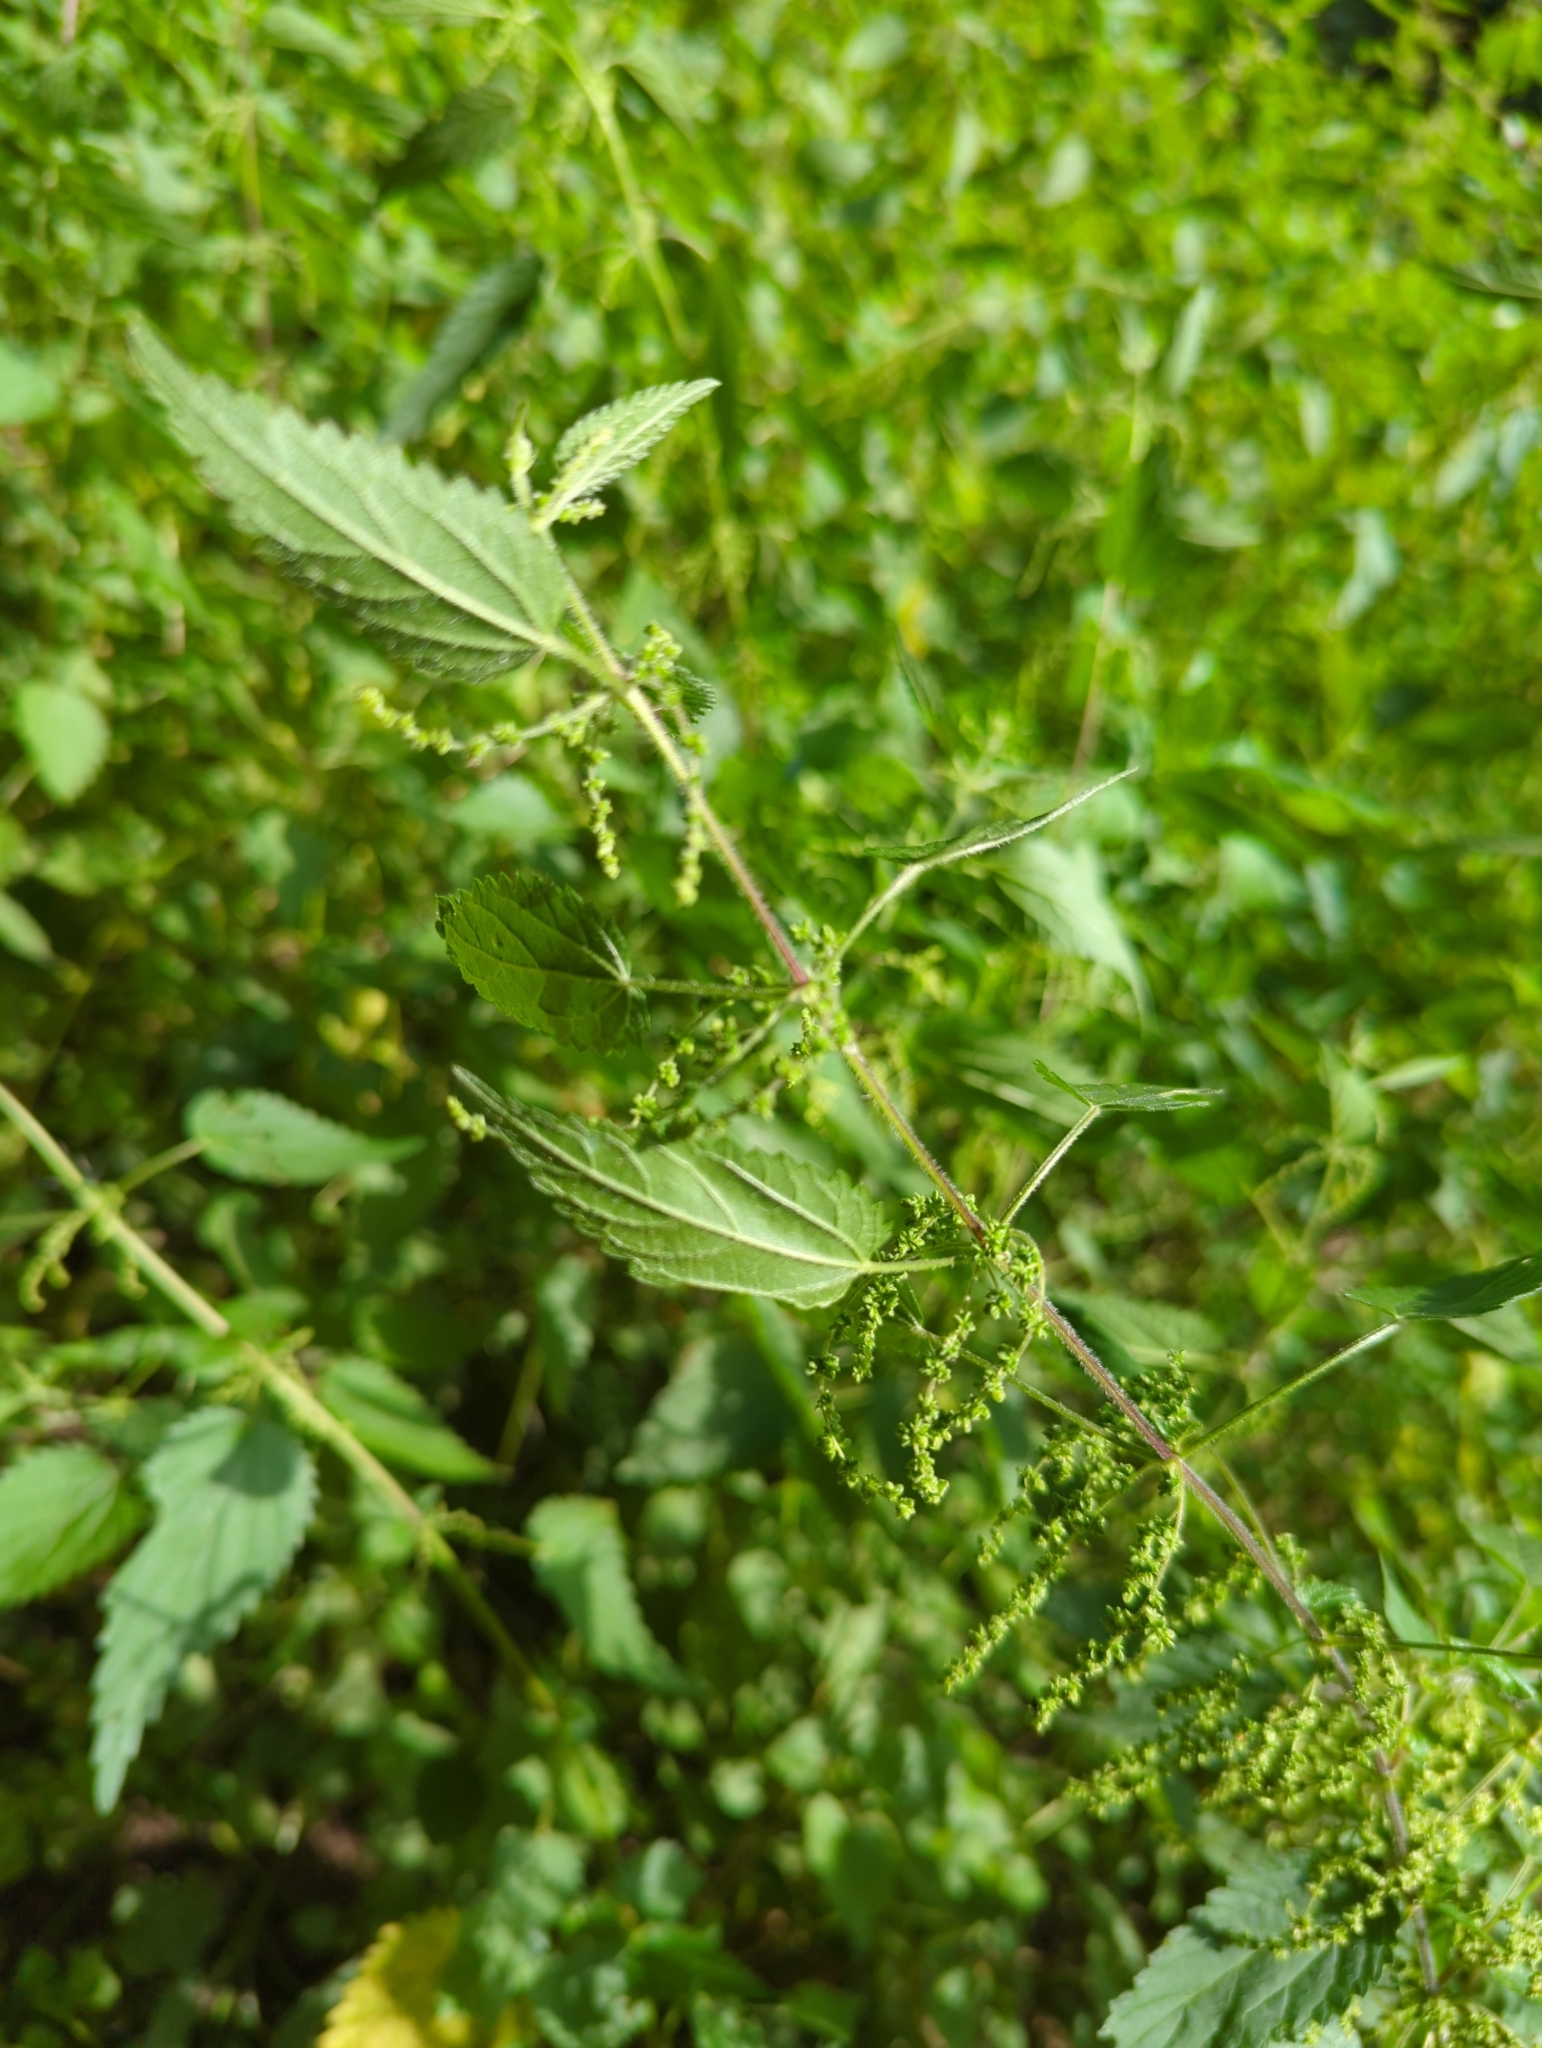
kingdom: Plantae
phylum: Tracheophyta
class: Magnoliopsida
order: Rosales
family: Urticaceae
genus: Urtica
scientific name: Urtica dioica
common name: Common nettle
